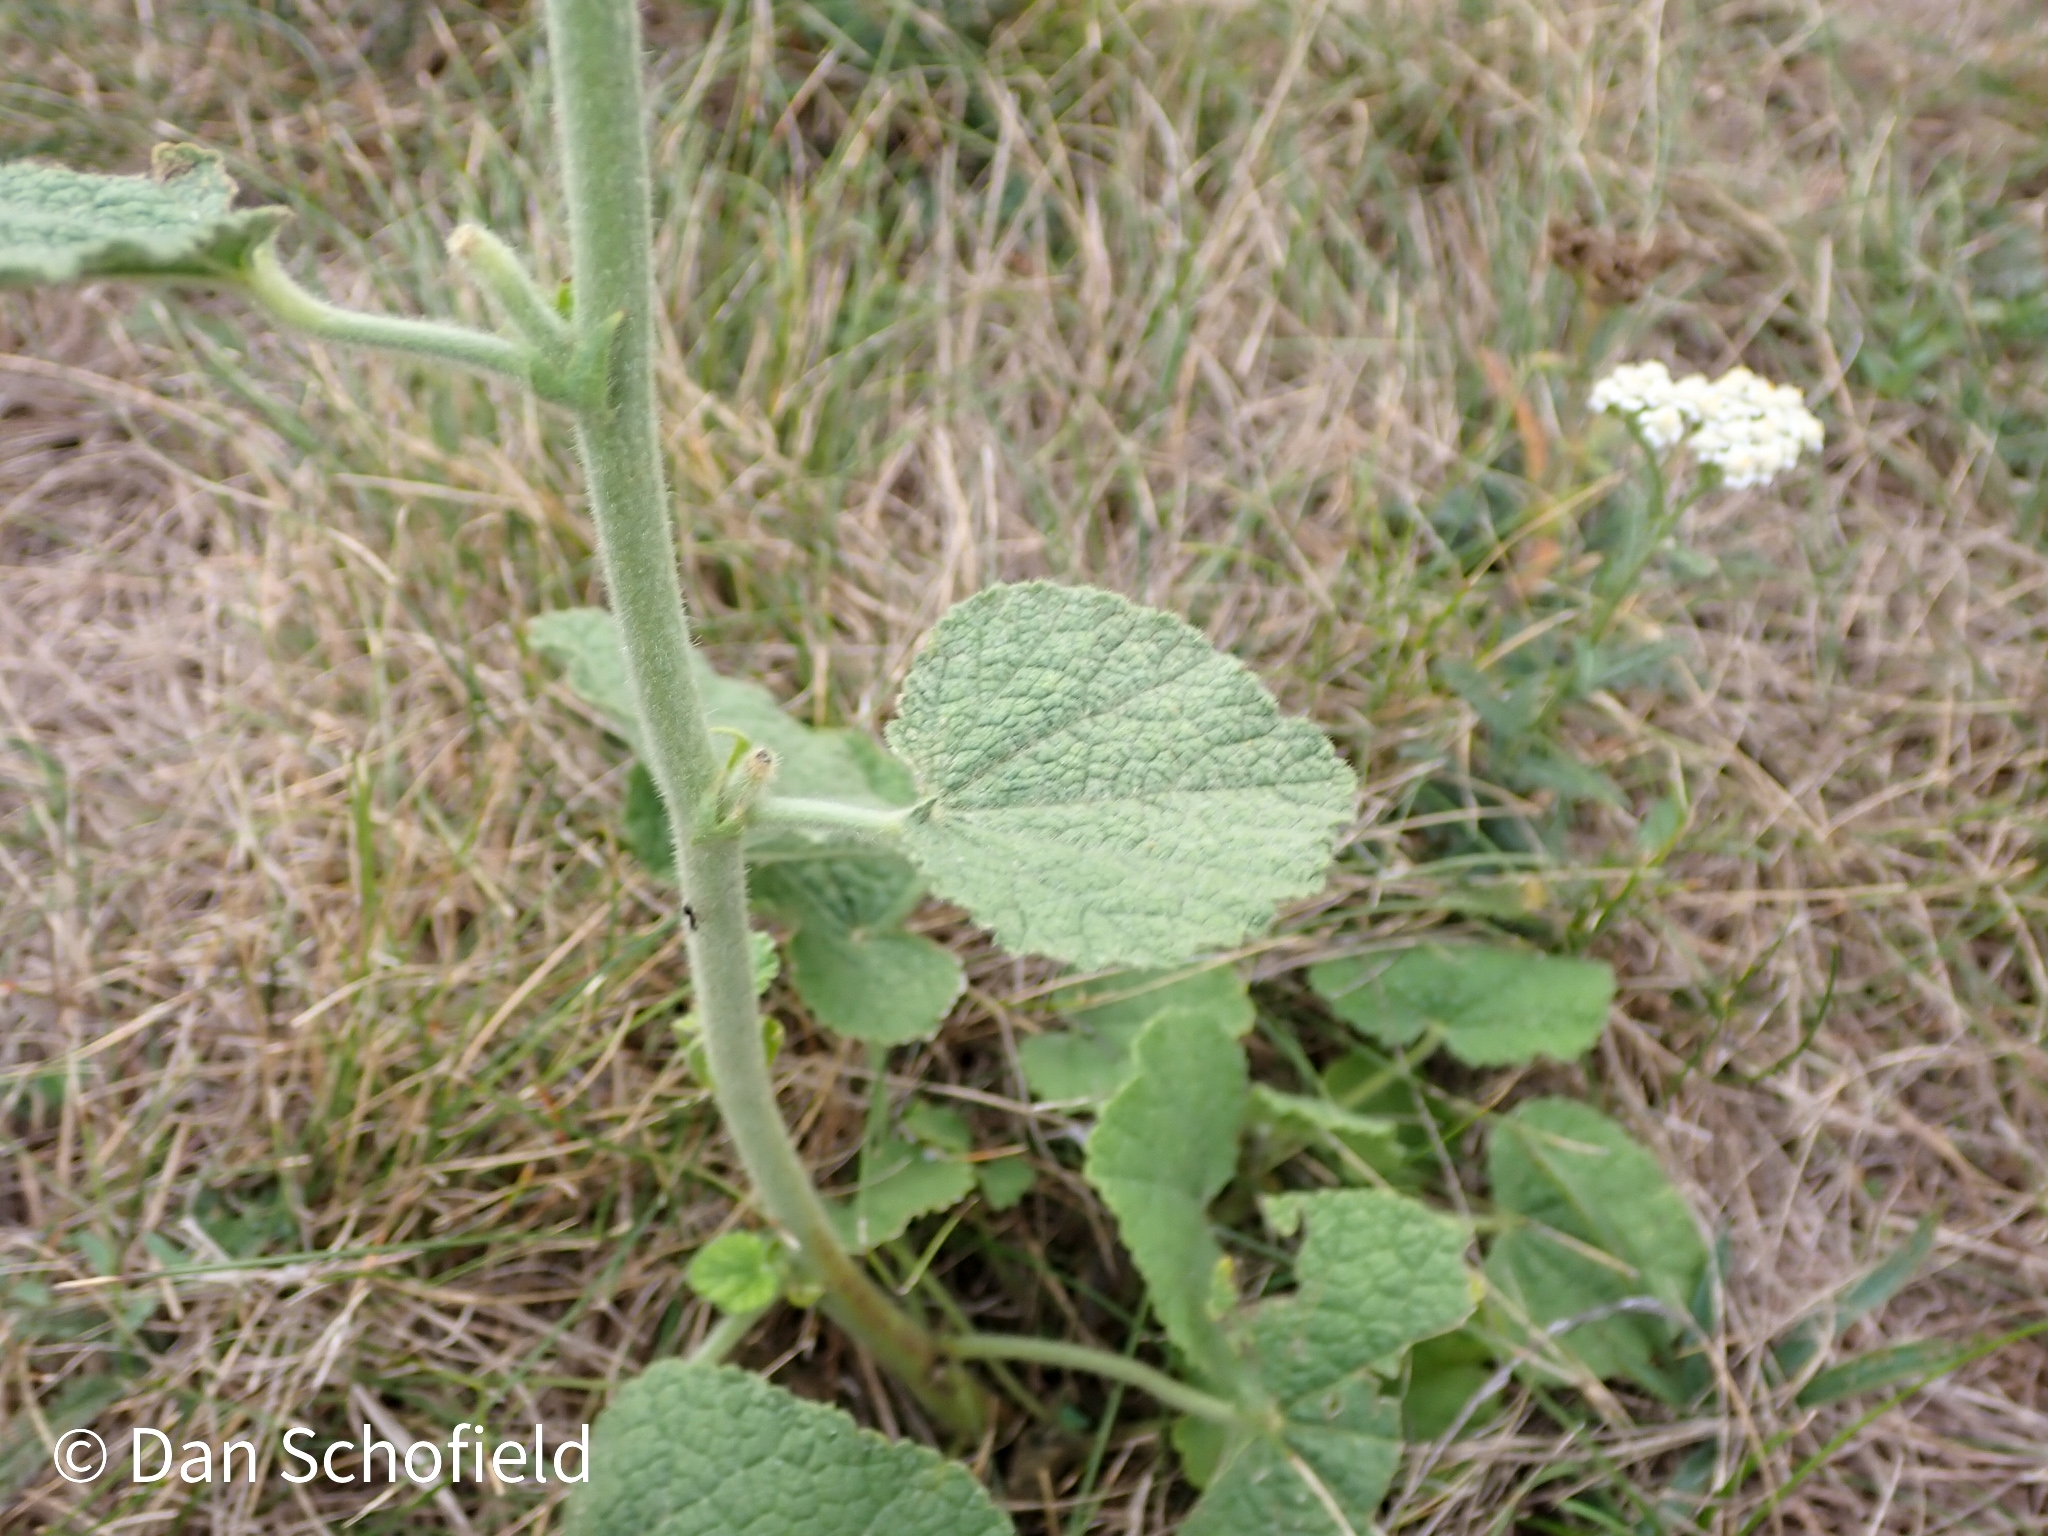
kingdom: Plantae
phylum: Tracheophyta
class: Magnoliopsida
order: Malvales
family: Malvaceae
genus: Alcea
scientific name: Alcea biennis
